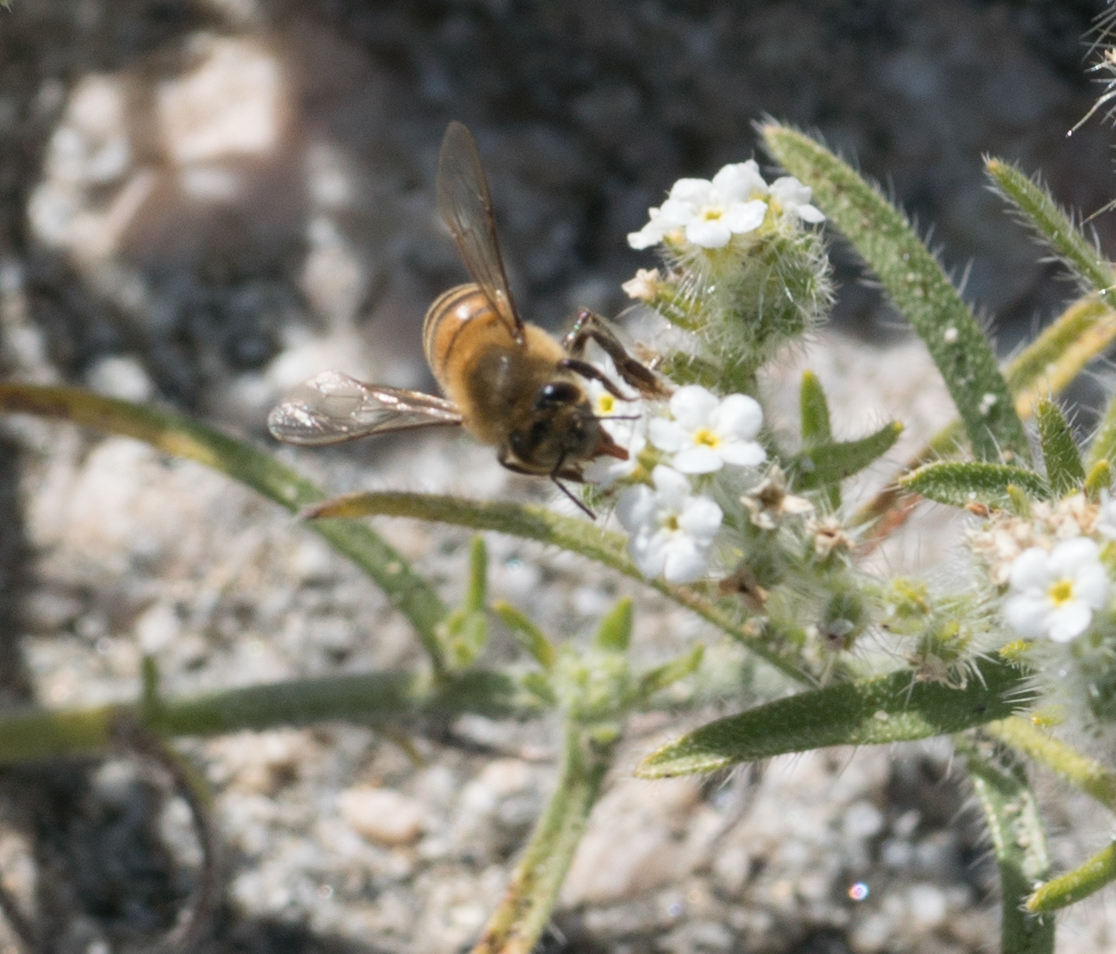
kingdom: Animalia
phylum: Arthropoda
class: Insecta
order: Hymenoptera
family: Apidae
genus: Apis
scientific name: Apis mellifera
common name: Honey bee
